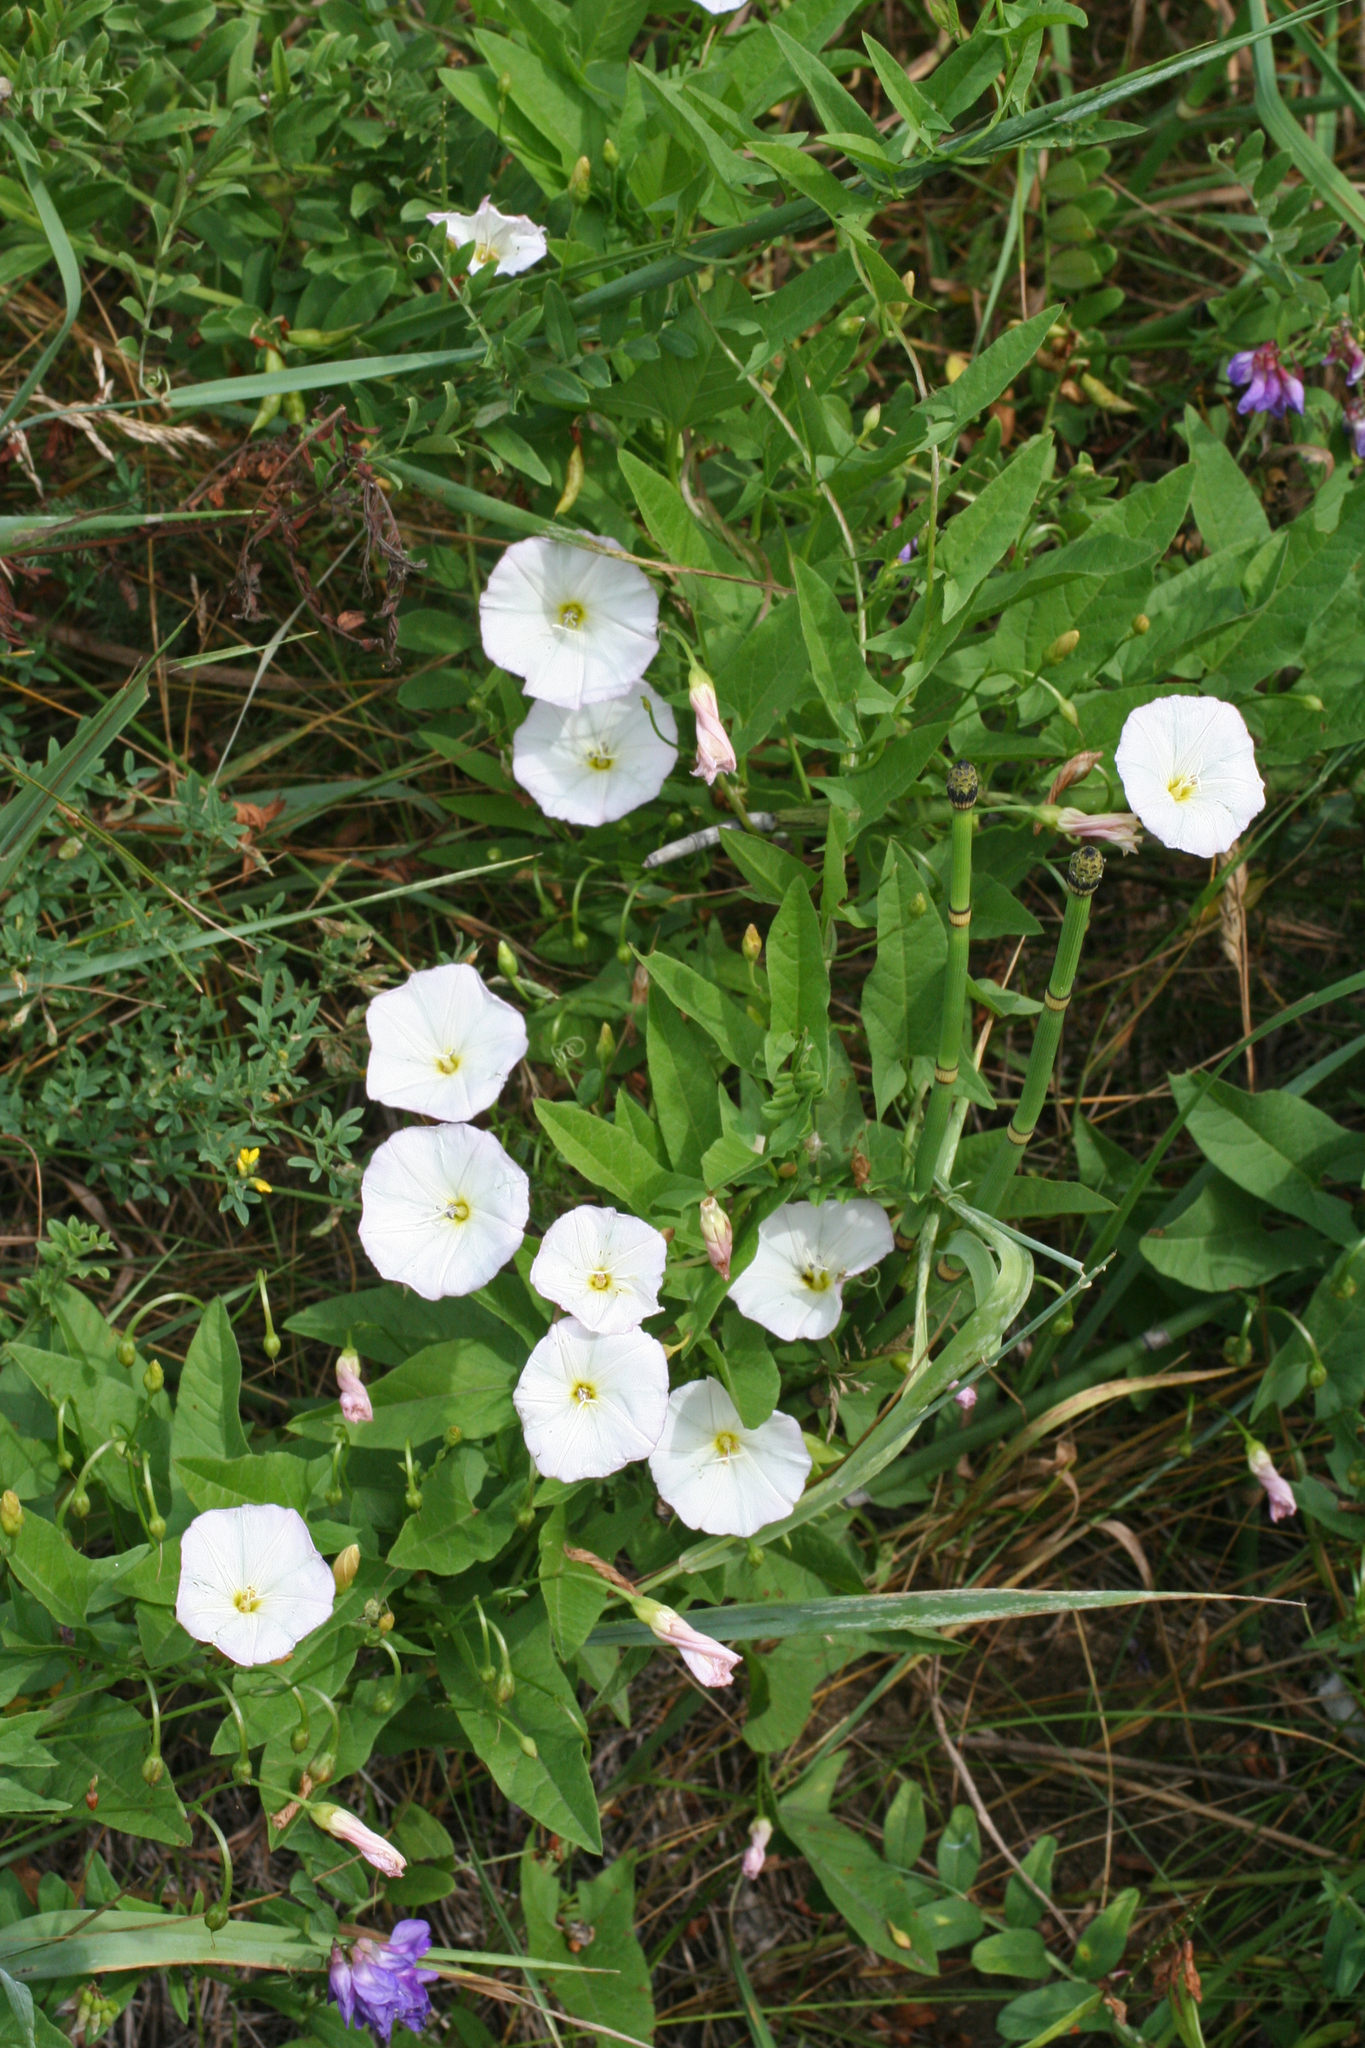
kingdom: Plantae
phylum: Tracheophyta
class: Magnoliopsida
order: Solanales
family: Convolvulaceae
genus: Convolvulus
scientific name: Convolvulus arvensis
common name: Field bindweed
